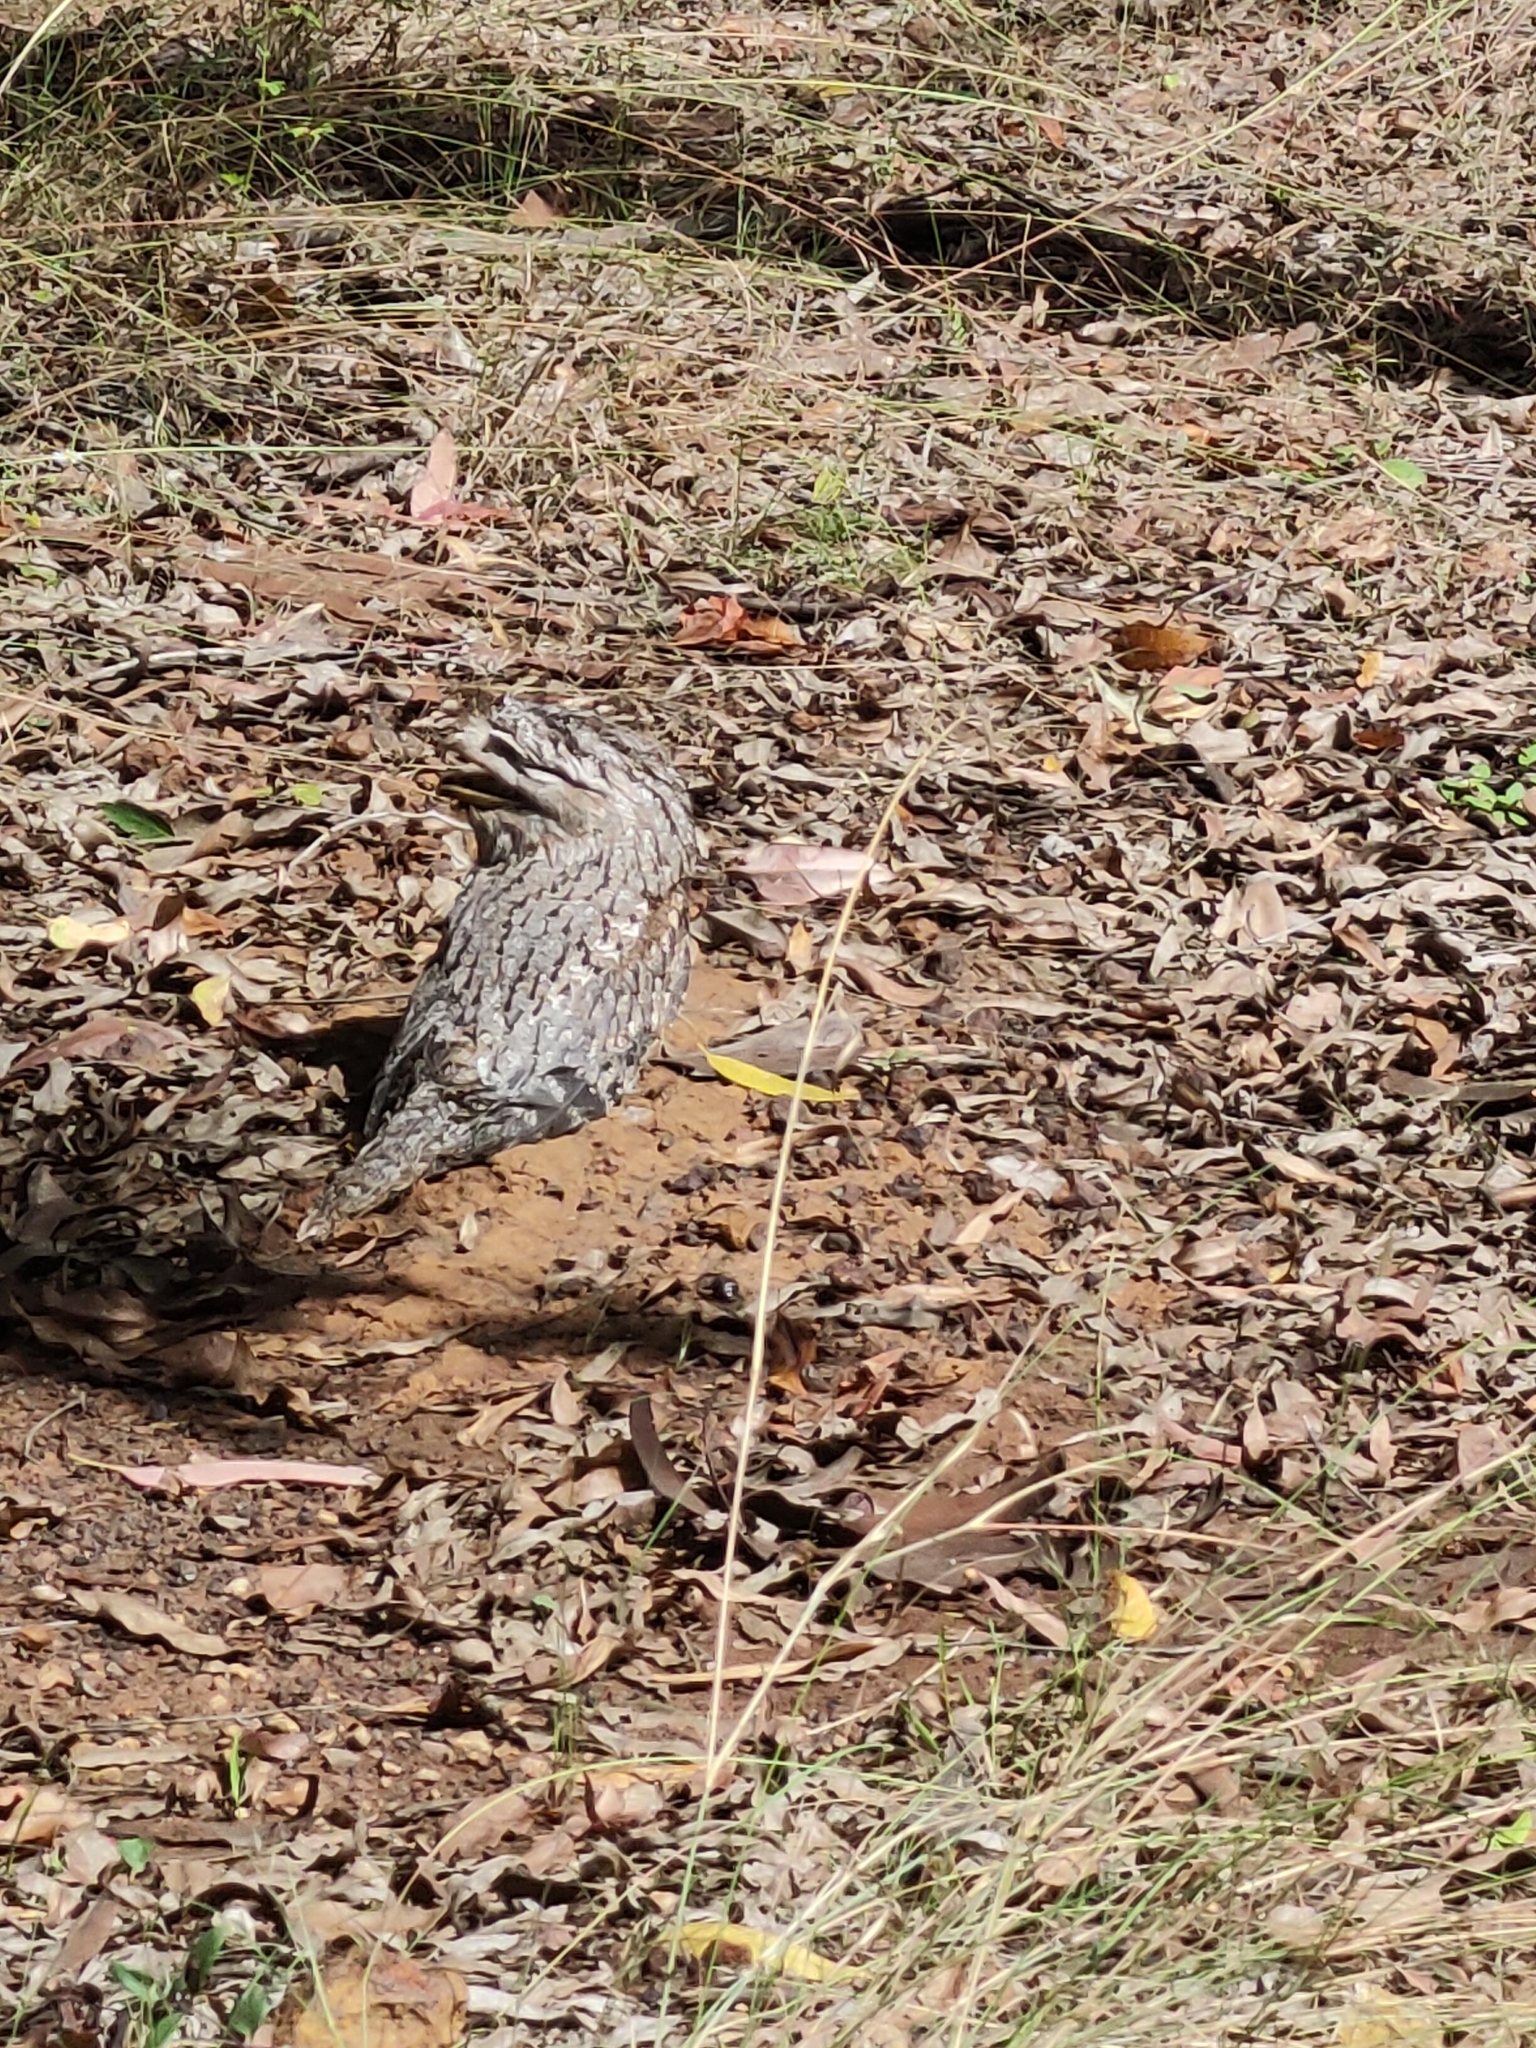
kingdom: Animalia
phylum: Chordata
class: Aves
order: Caprimulgiformes
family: Podargidae
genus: Podargus
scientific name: Podargus strigoides
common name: Tawny frogmouth
